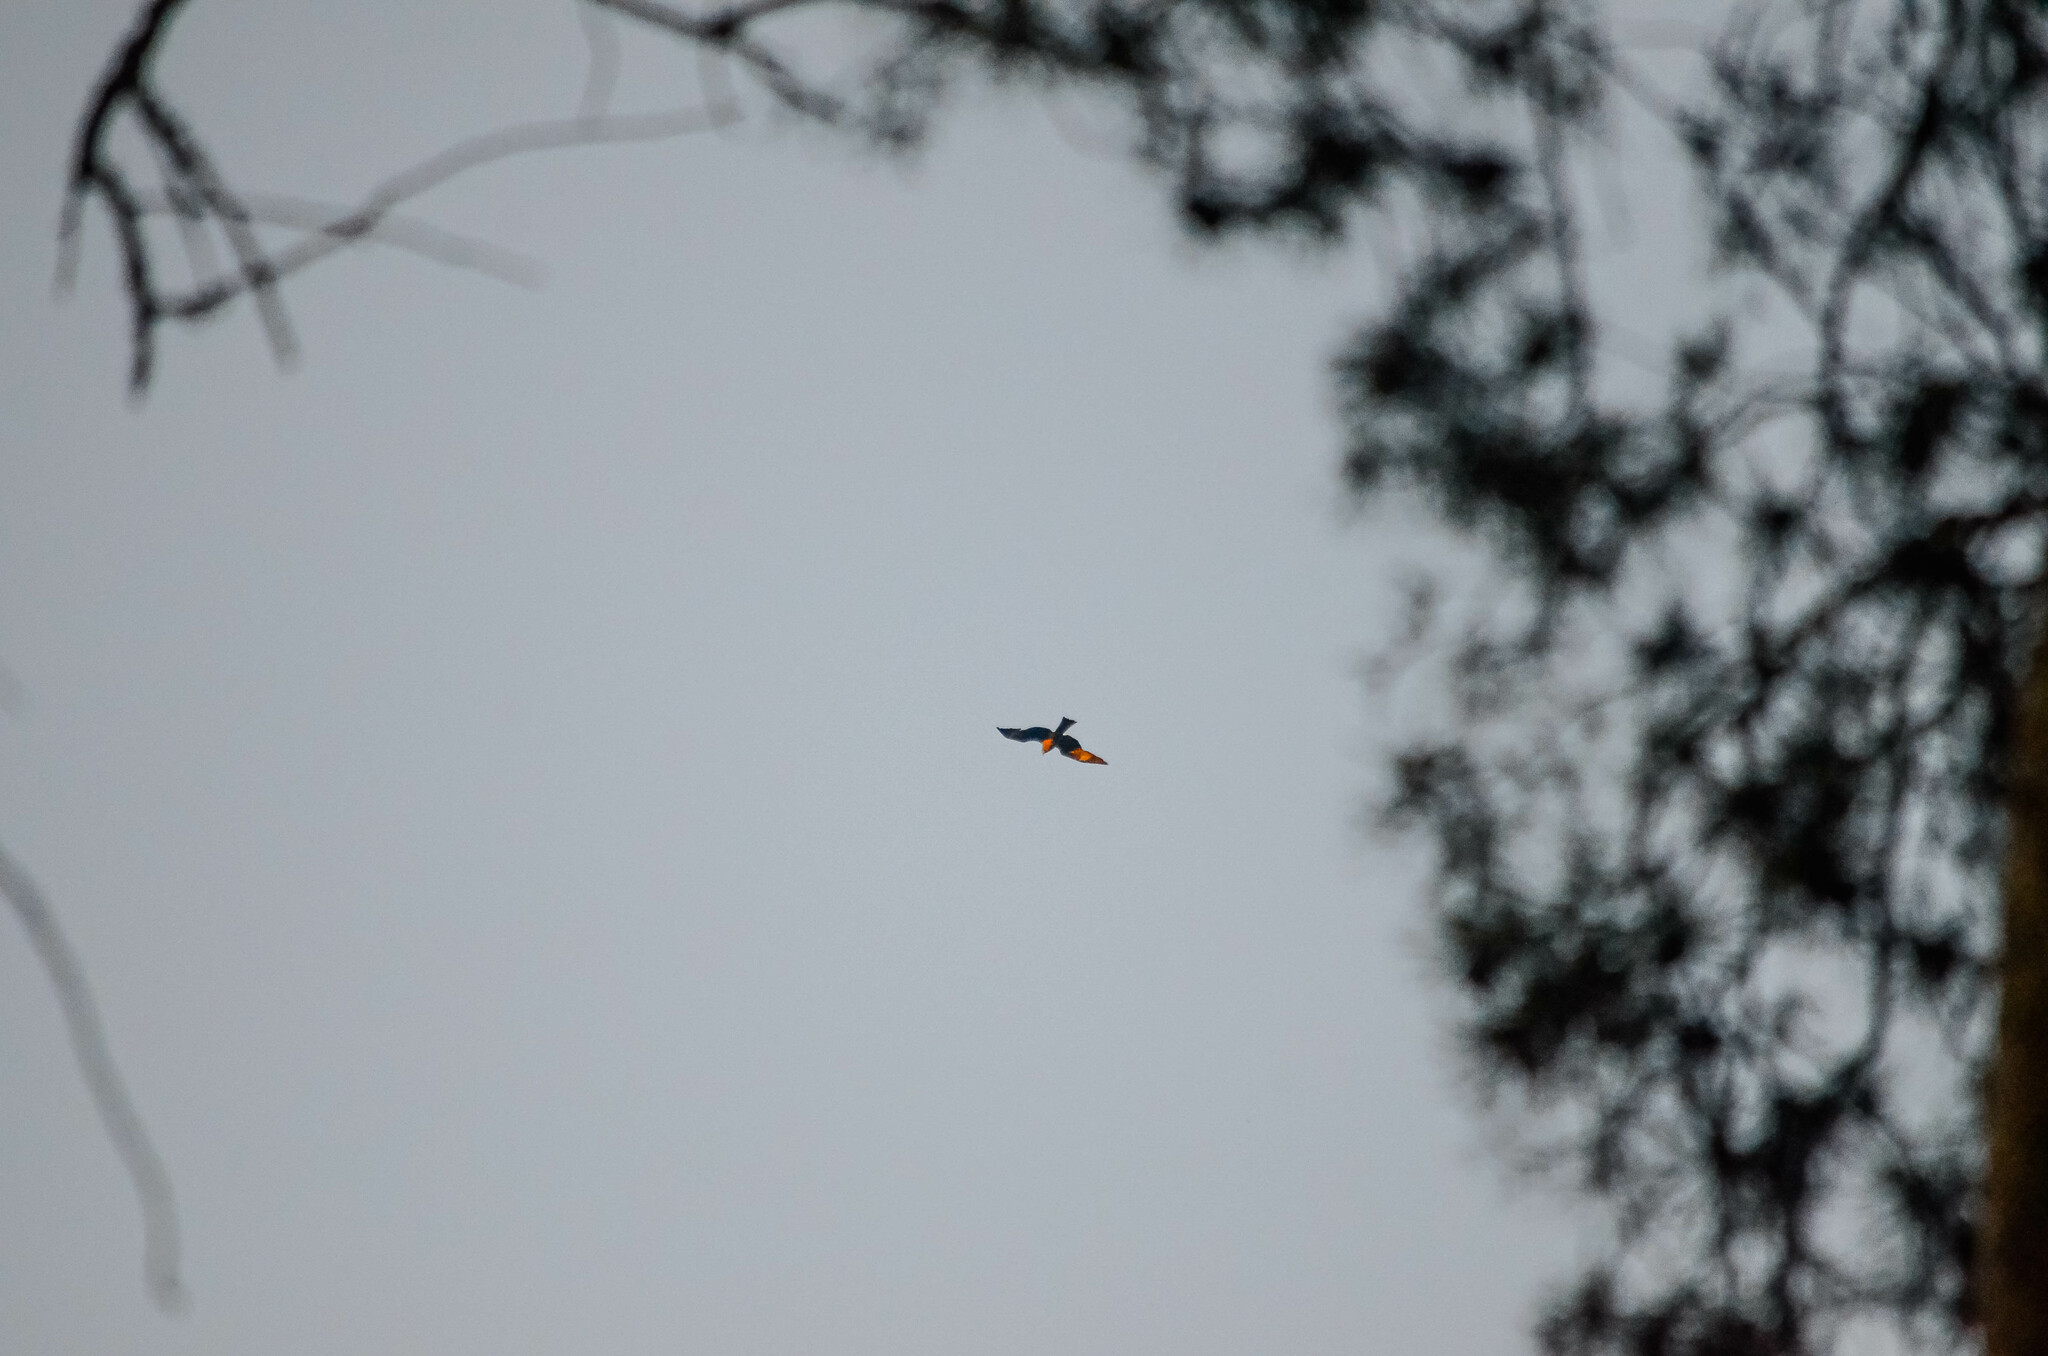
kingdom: Animalia
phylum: Chordata
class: Aves
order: Accipitriformes
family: Accipitridae
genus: Milvus
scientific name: Milvus migrans
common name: Black kite
